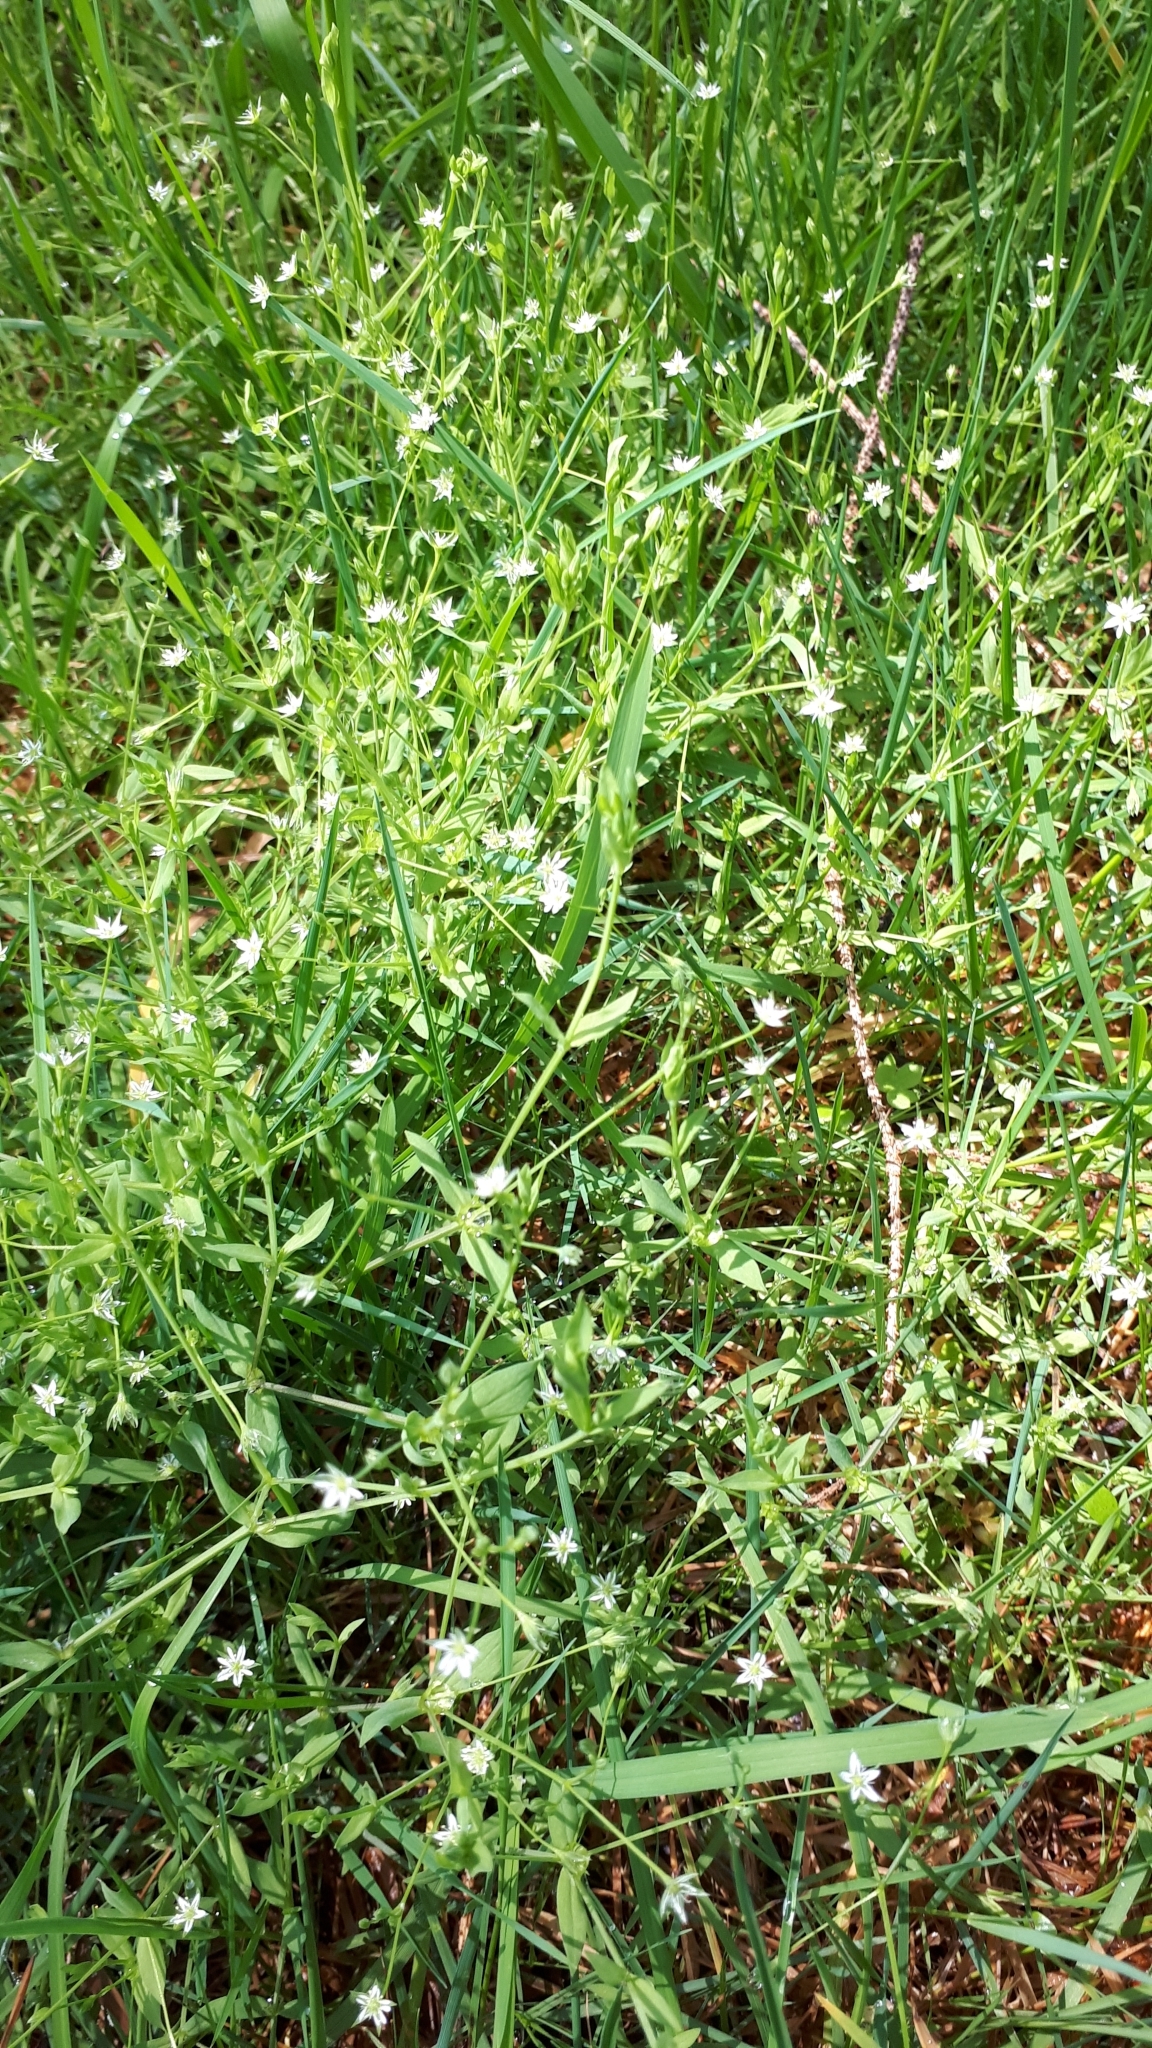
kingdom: Plantae
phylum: Tracheophyta
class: Magnoliopsida
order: Caryophyllales
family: Caryophyllaceae
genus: Stellaria
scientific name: Stellaria alsine
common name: Bog stitchwort
